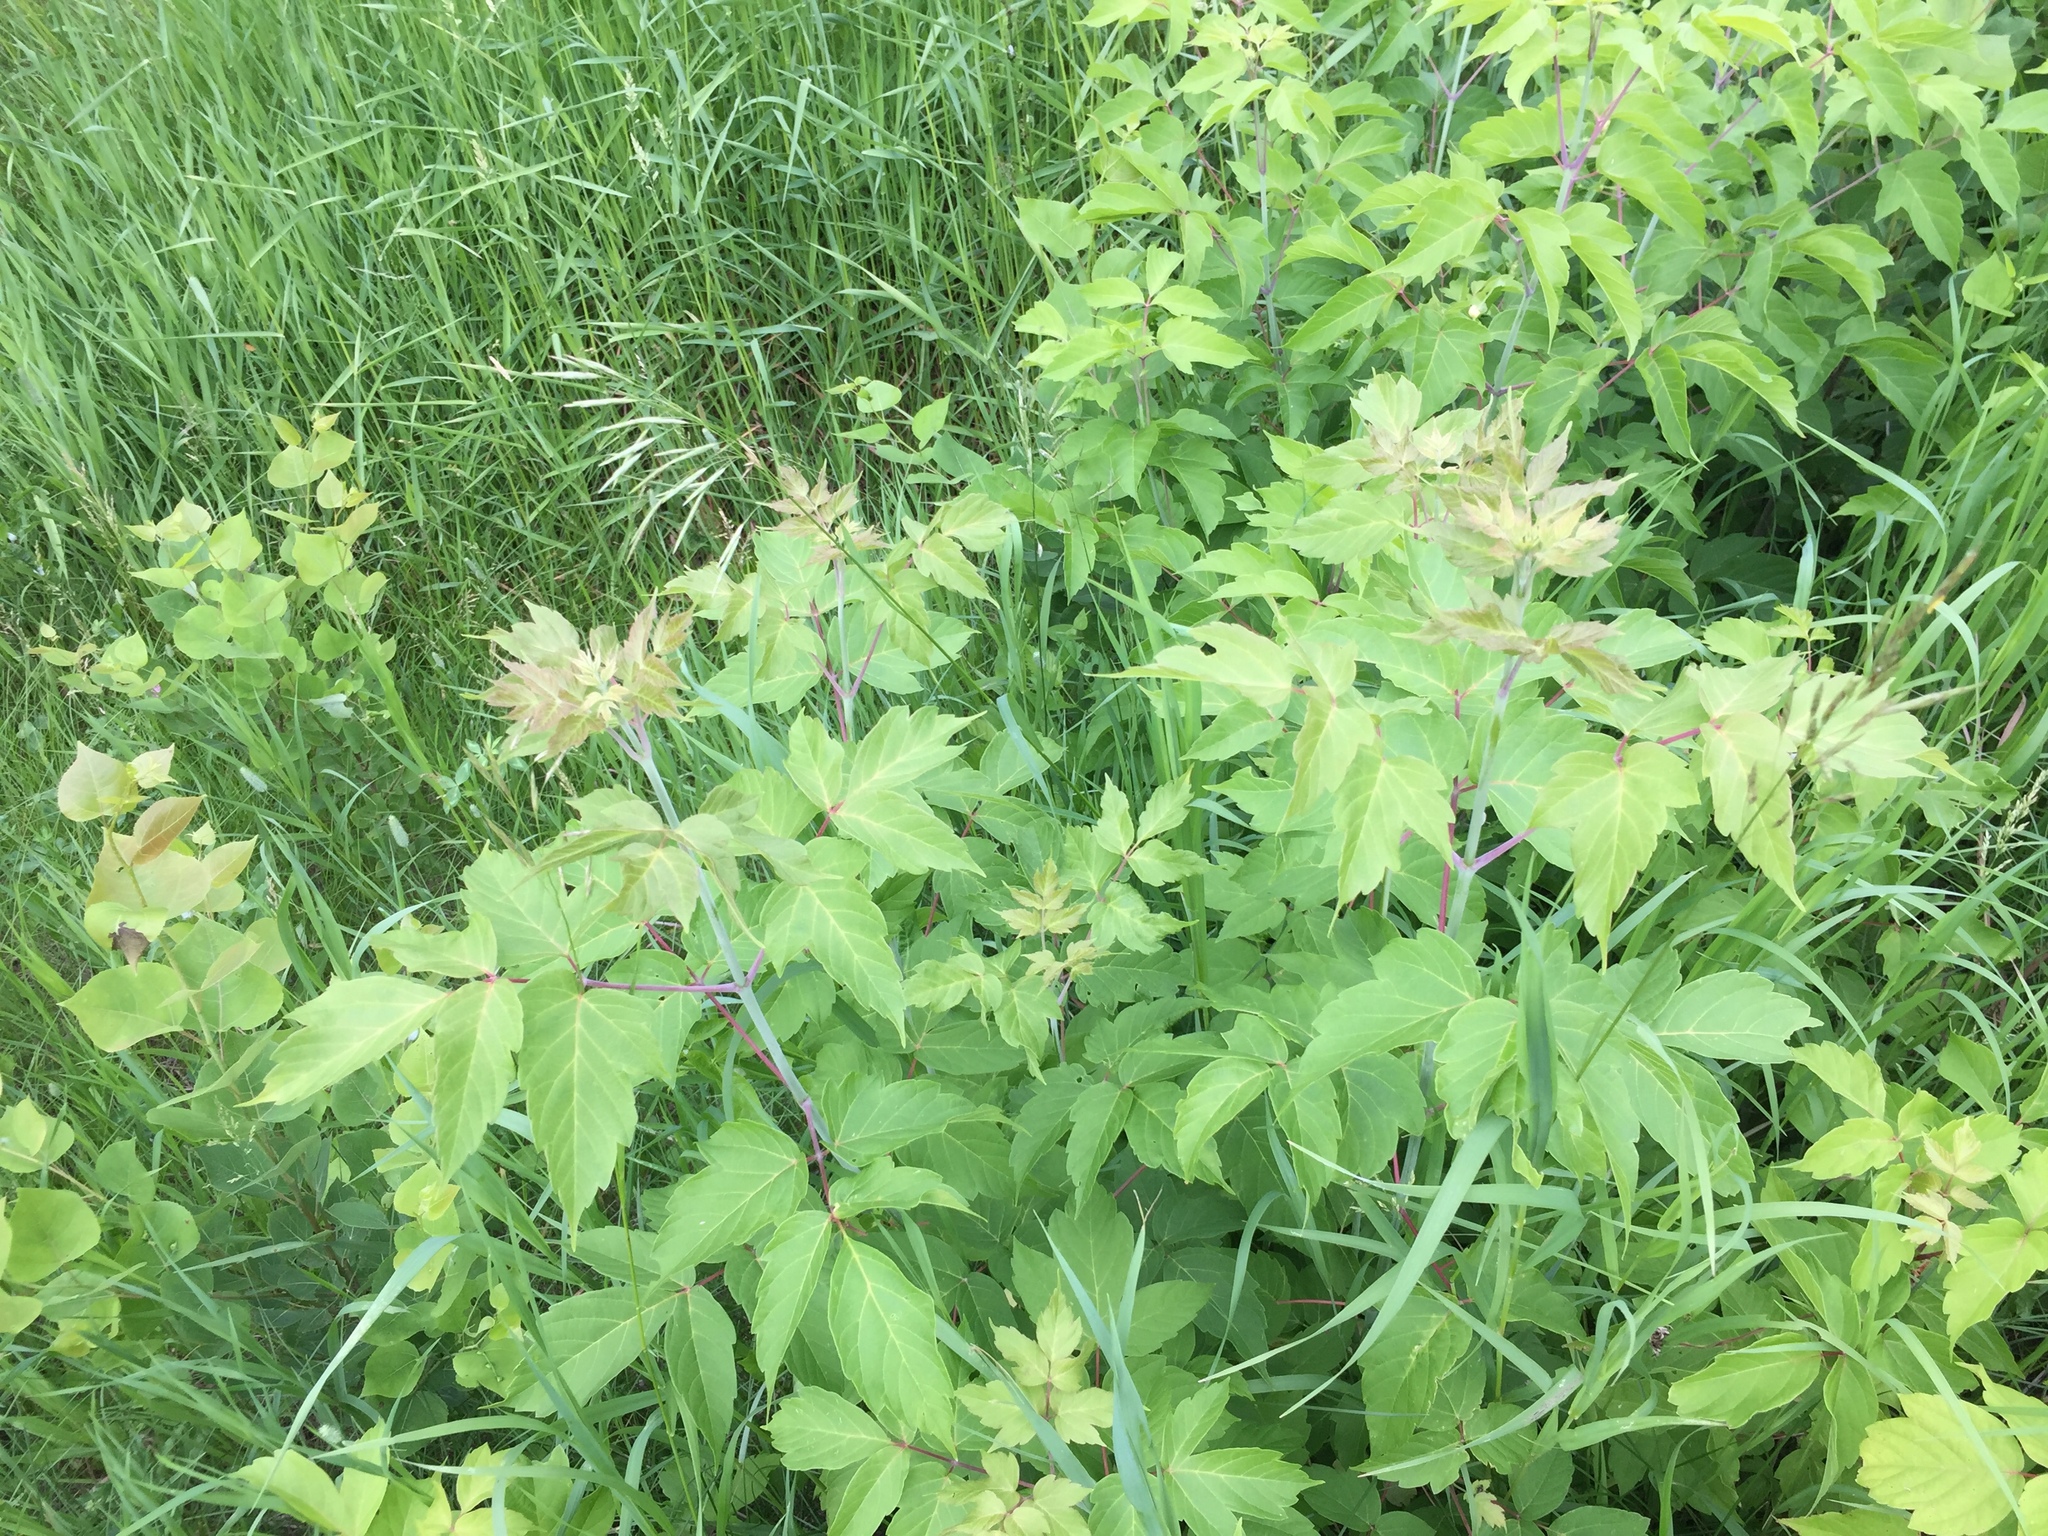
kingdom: Plantae
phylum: Tracheophyta
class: Magnoliopsida
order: Sapindales
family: Sapindaceae
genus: Acer
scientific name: Acer negundo
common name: Ashleaf maple
